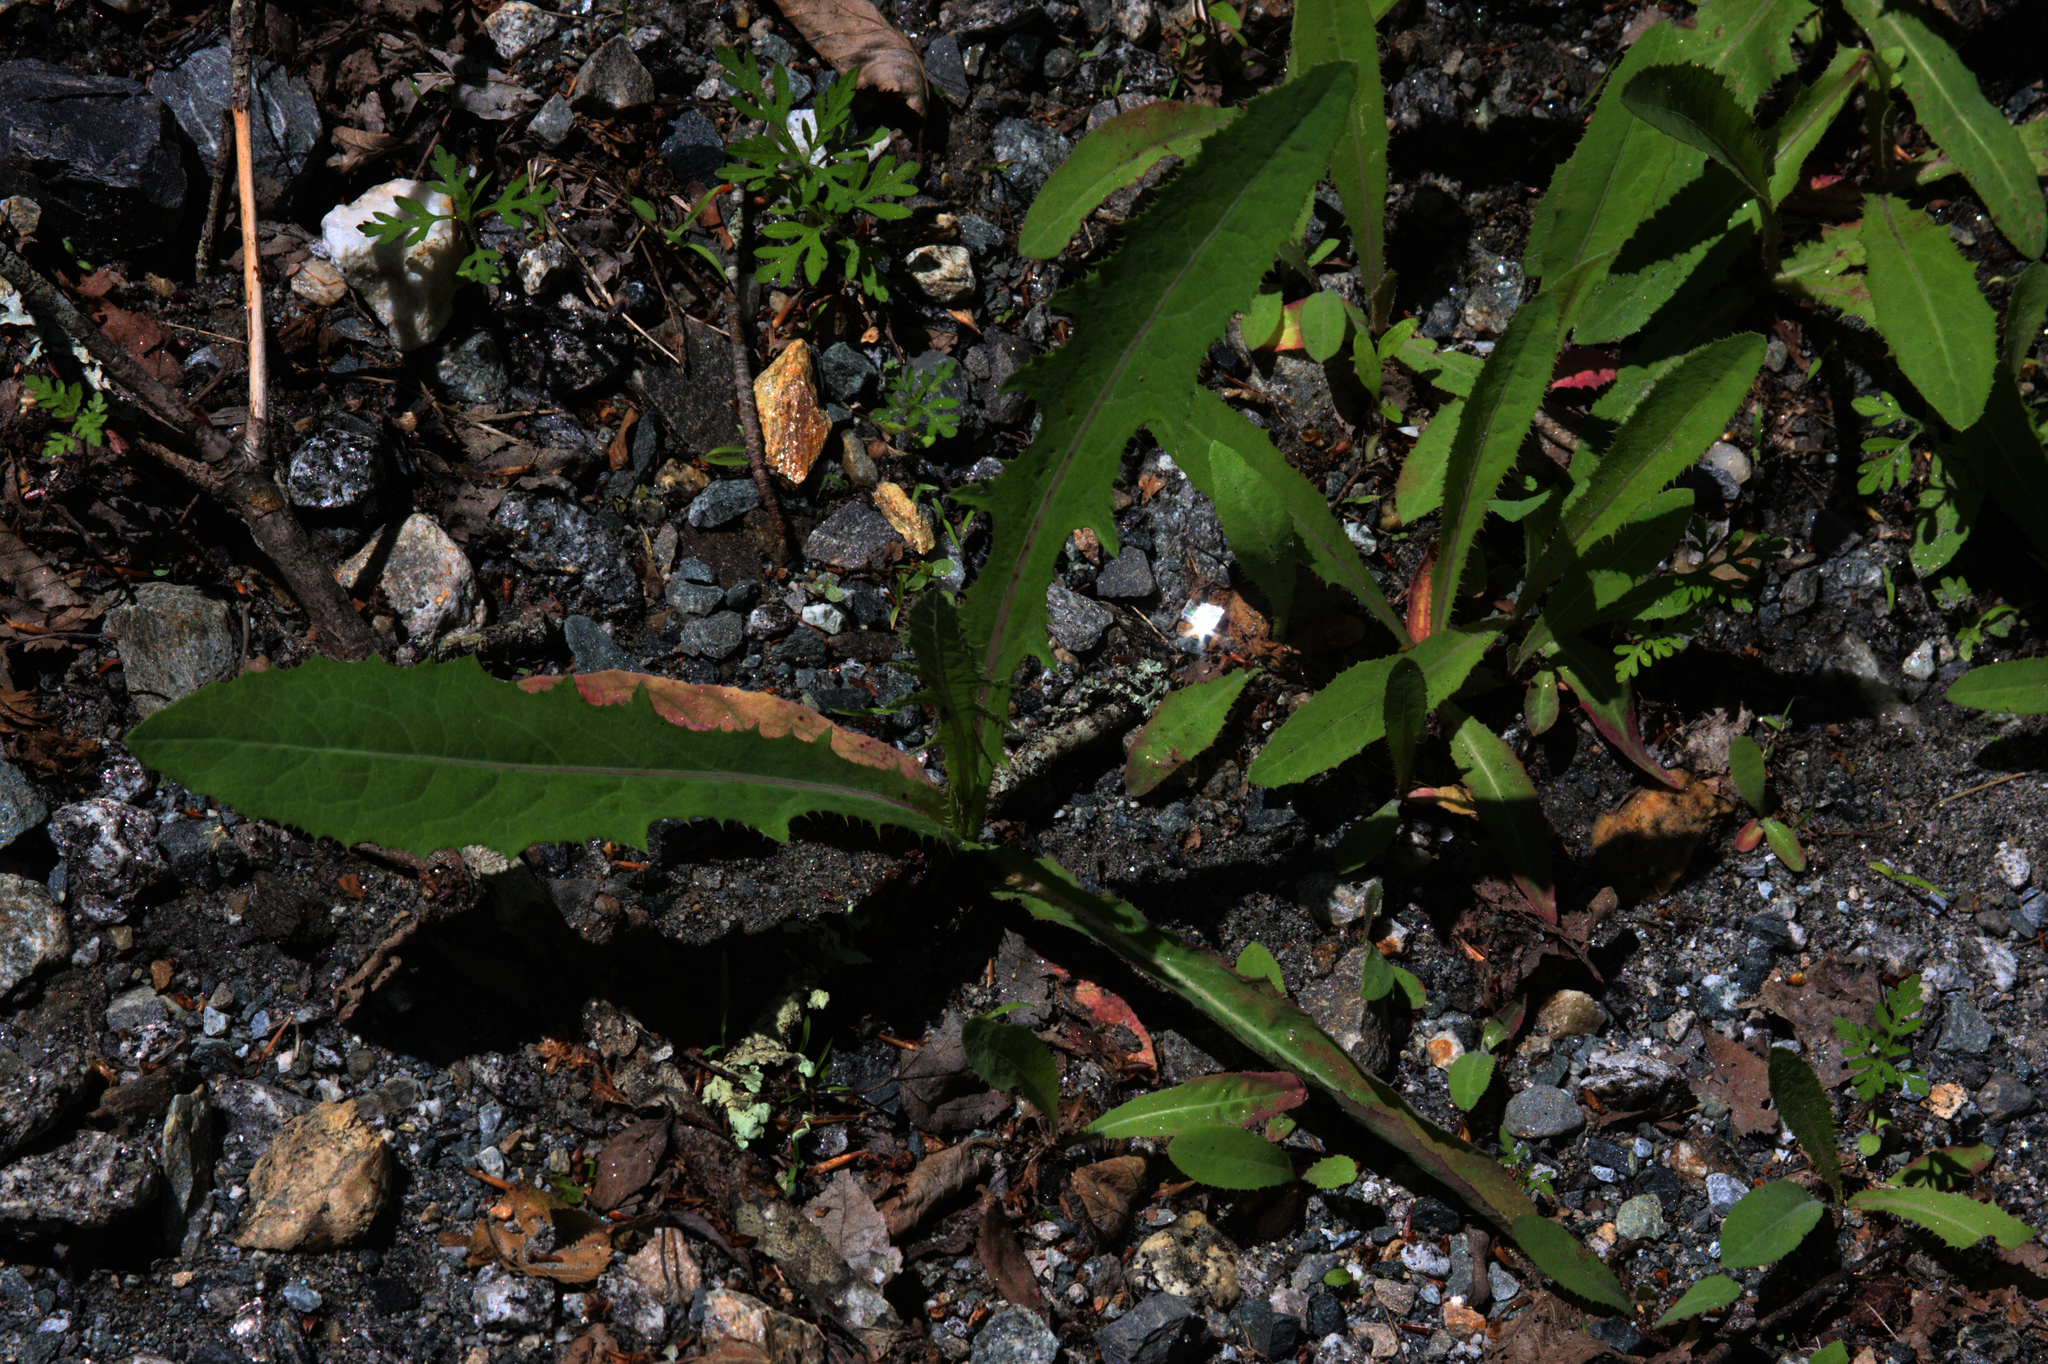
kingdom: Plantae
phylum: Tracheophyta
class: Magnoliopsida
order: Asterales
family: Asteraceae
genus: Sonchus
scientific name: Sonchus arvensis
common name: Perennial sow-thistle
